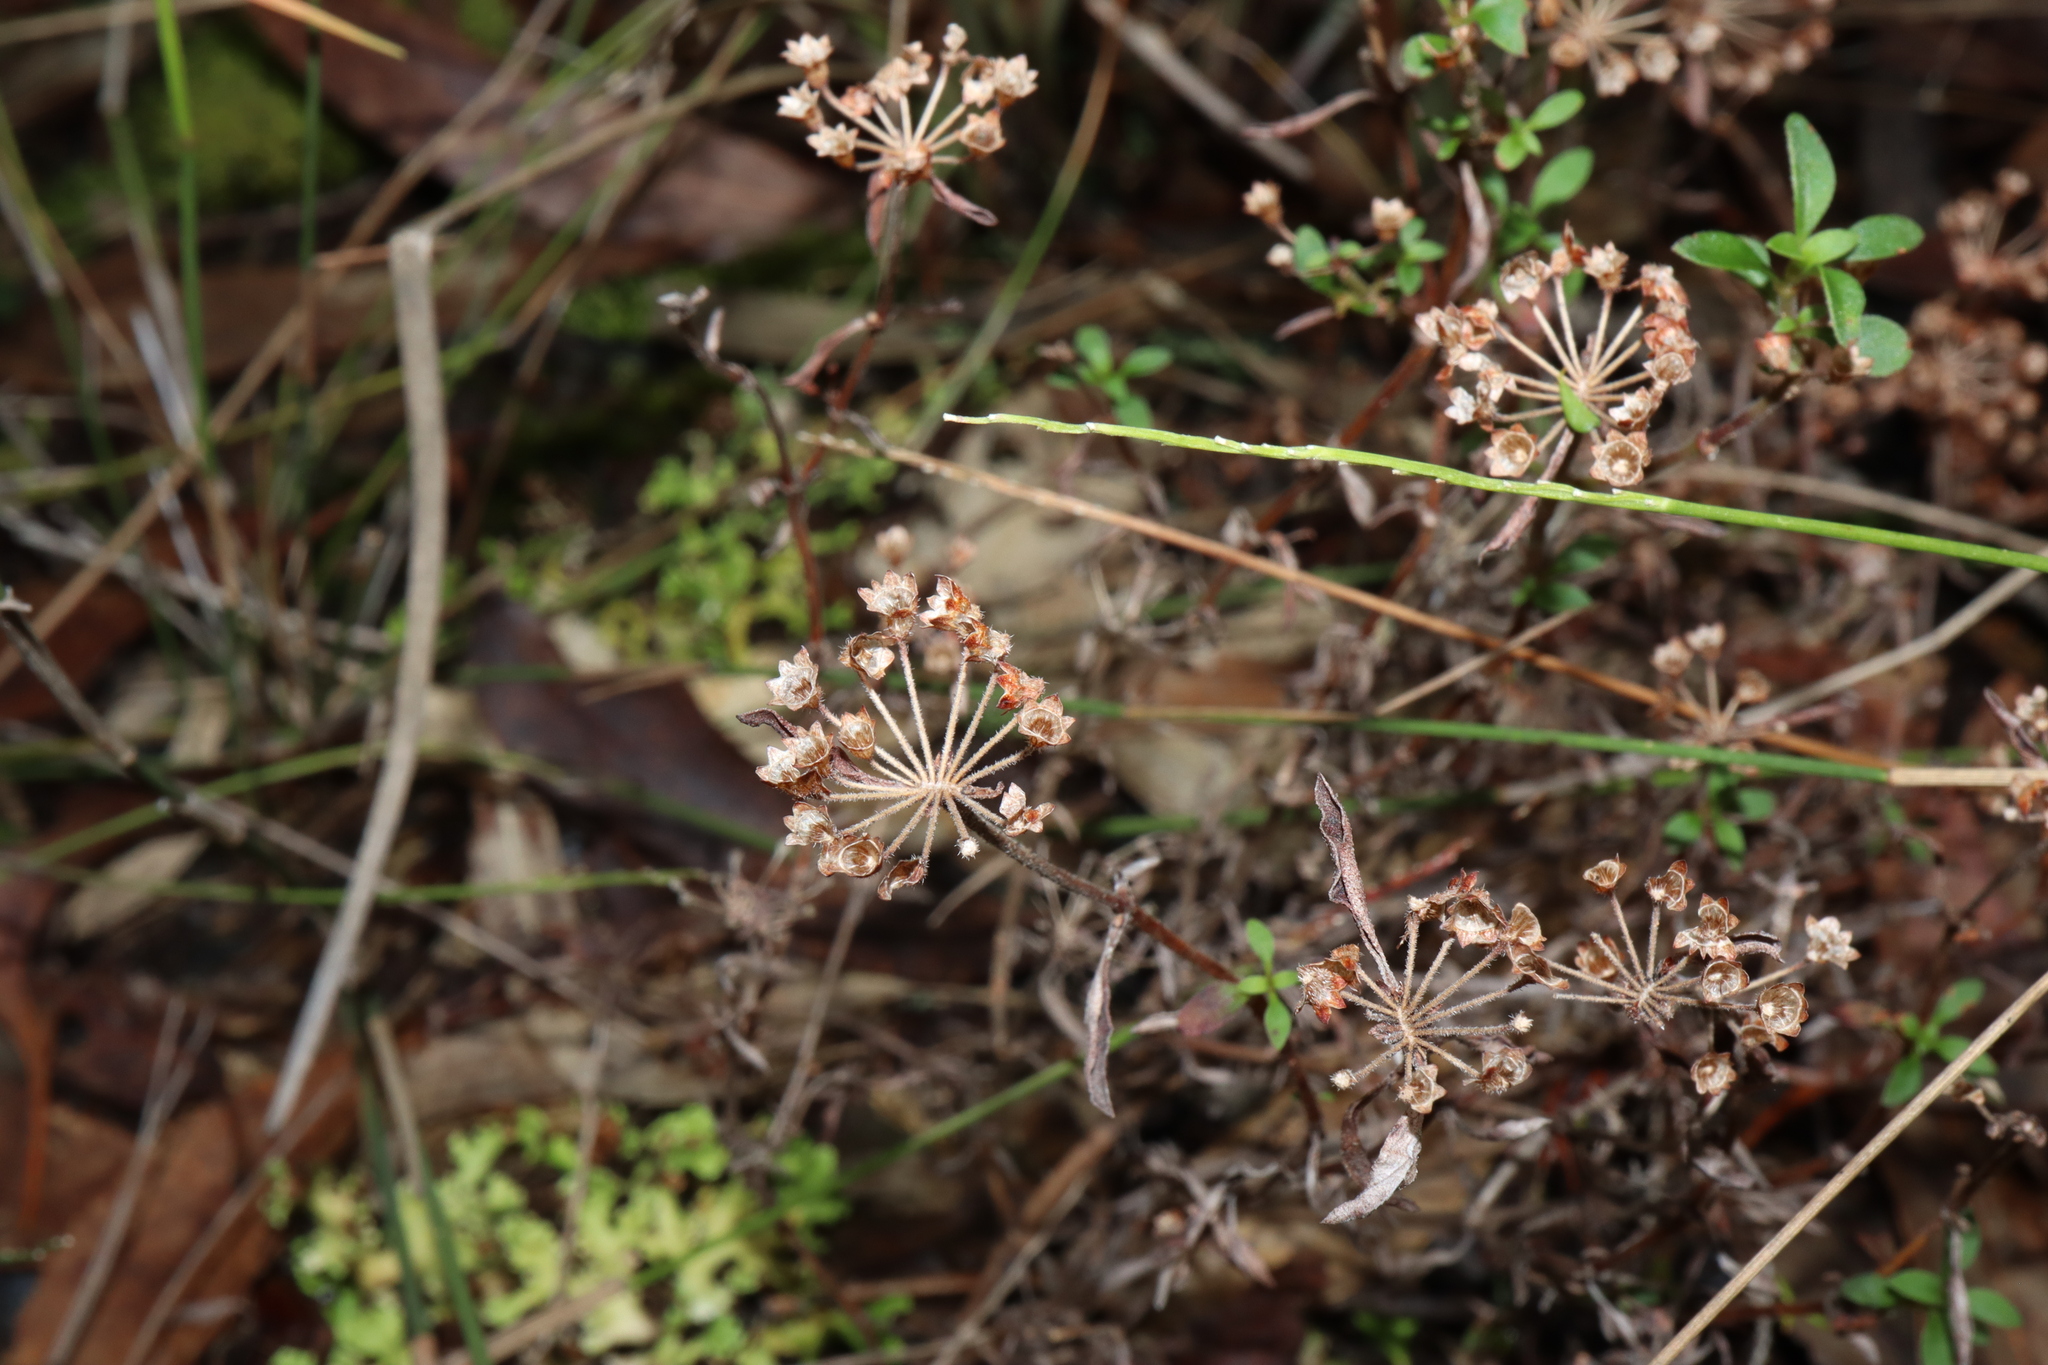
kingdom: Plantae
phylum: Tracheophyta
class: Magnoliopsida
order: Gentianales
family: Rubiaceae
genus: Pomax
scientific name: Pomax umbellata
